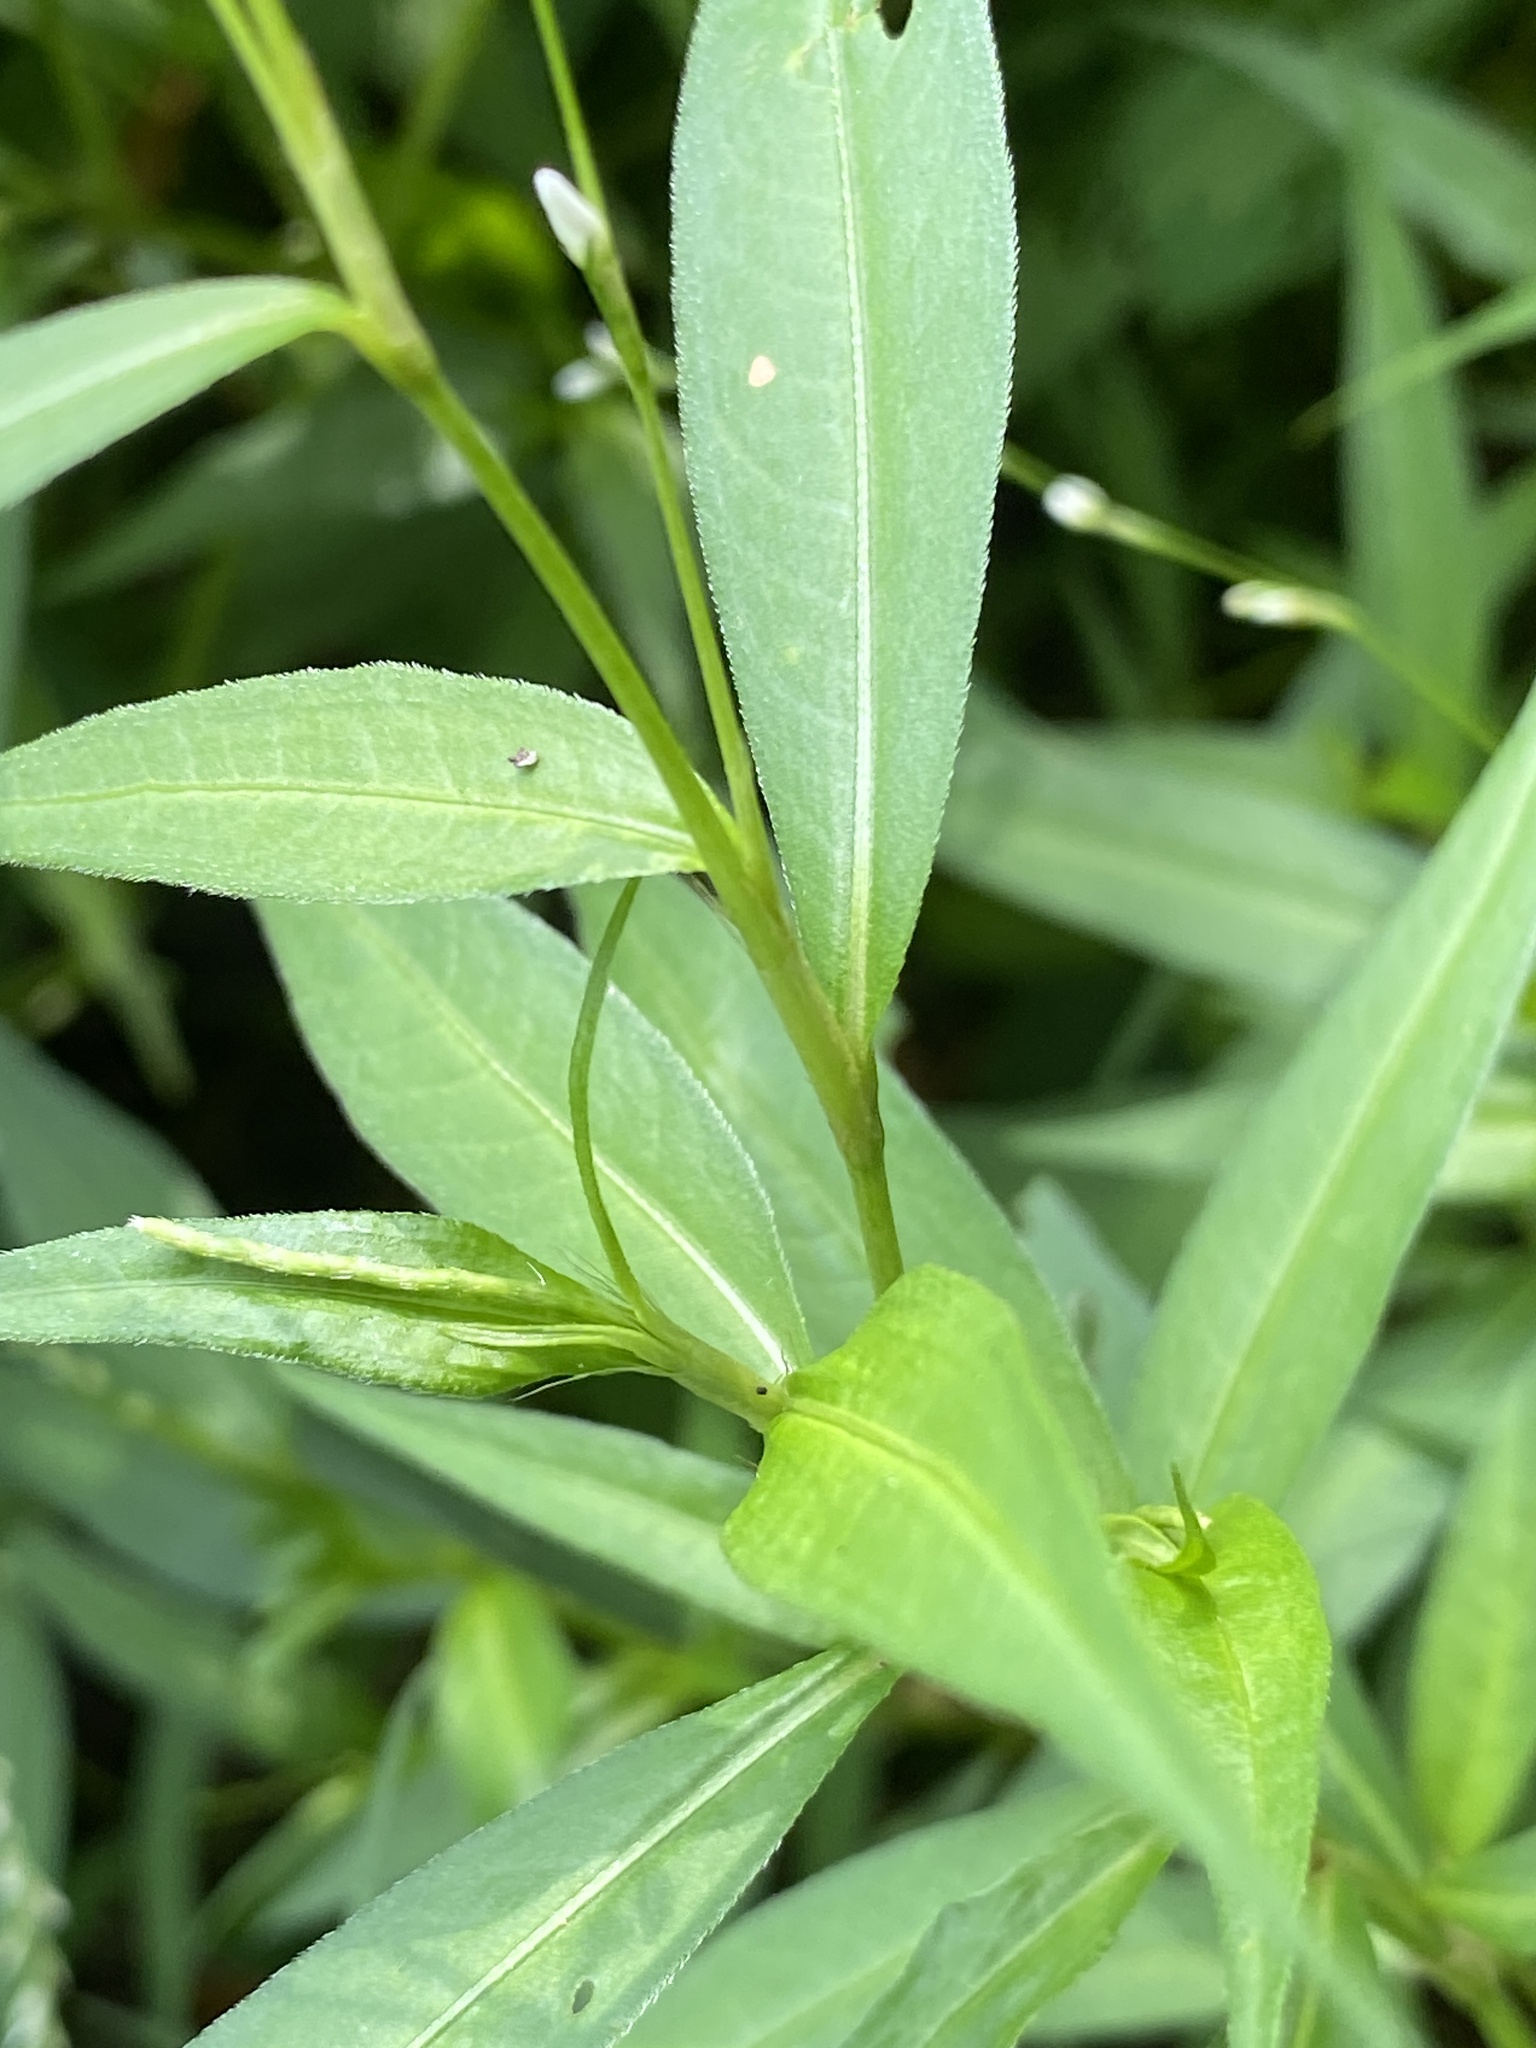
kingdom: Plantae
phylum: Tracheophyta
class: Magnoliopsida
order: Caryophyllales
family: Polygonaceae
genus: Persicaria
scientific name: Persicaria punctata
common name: Dotted smartweed
